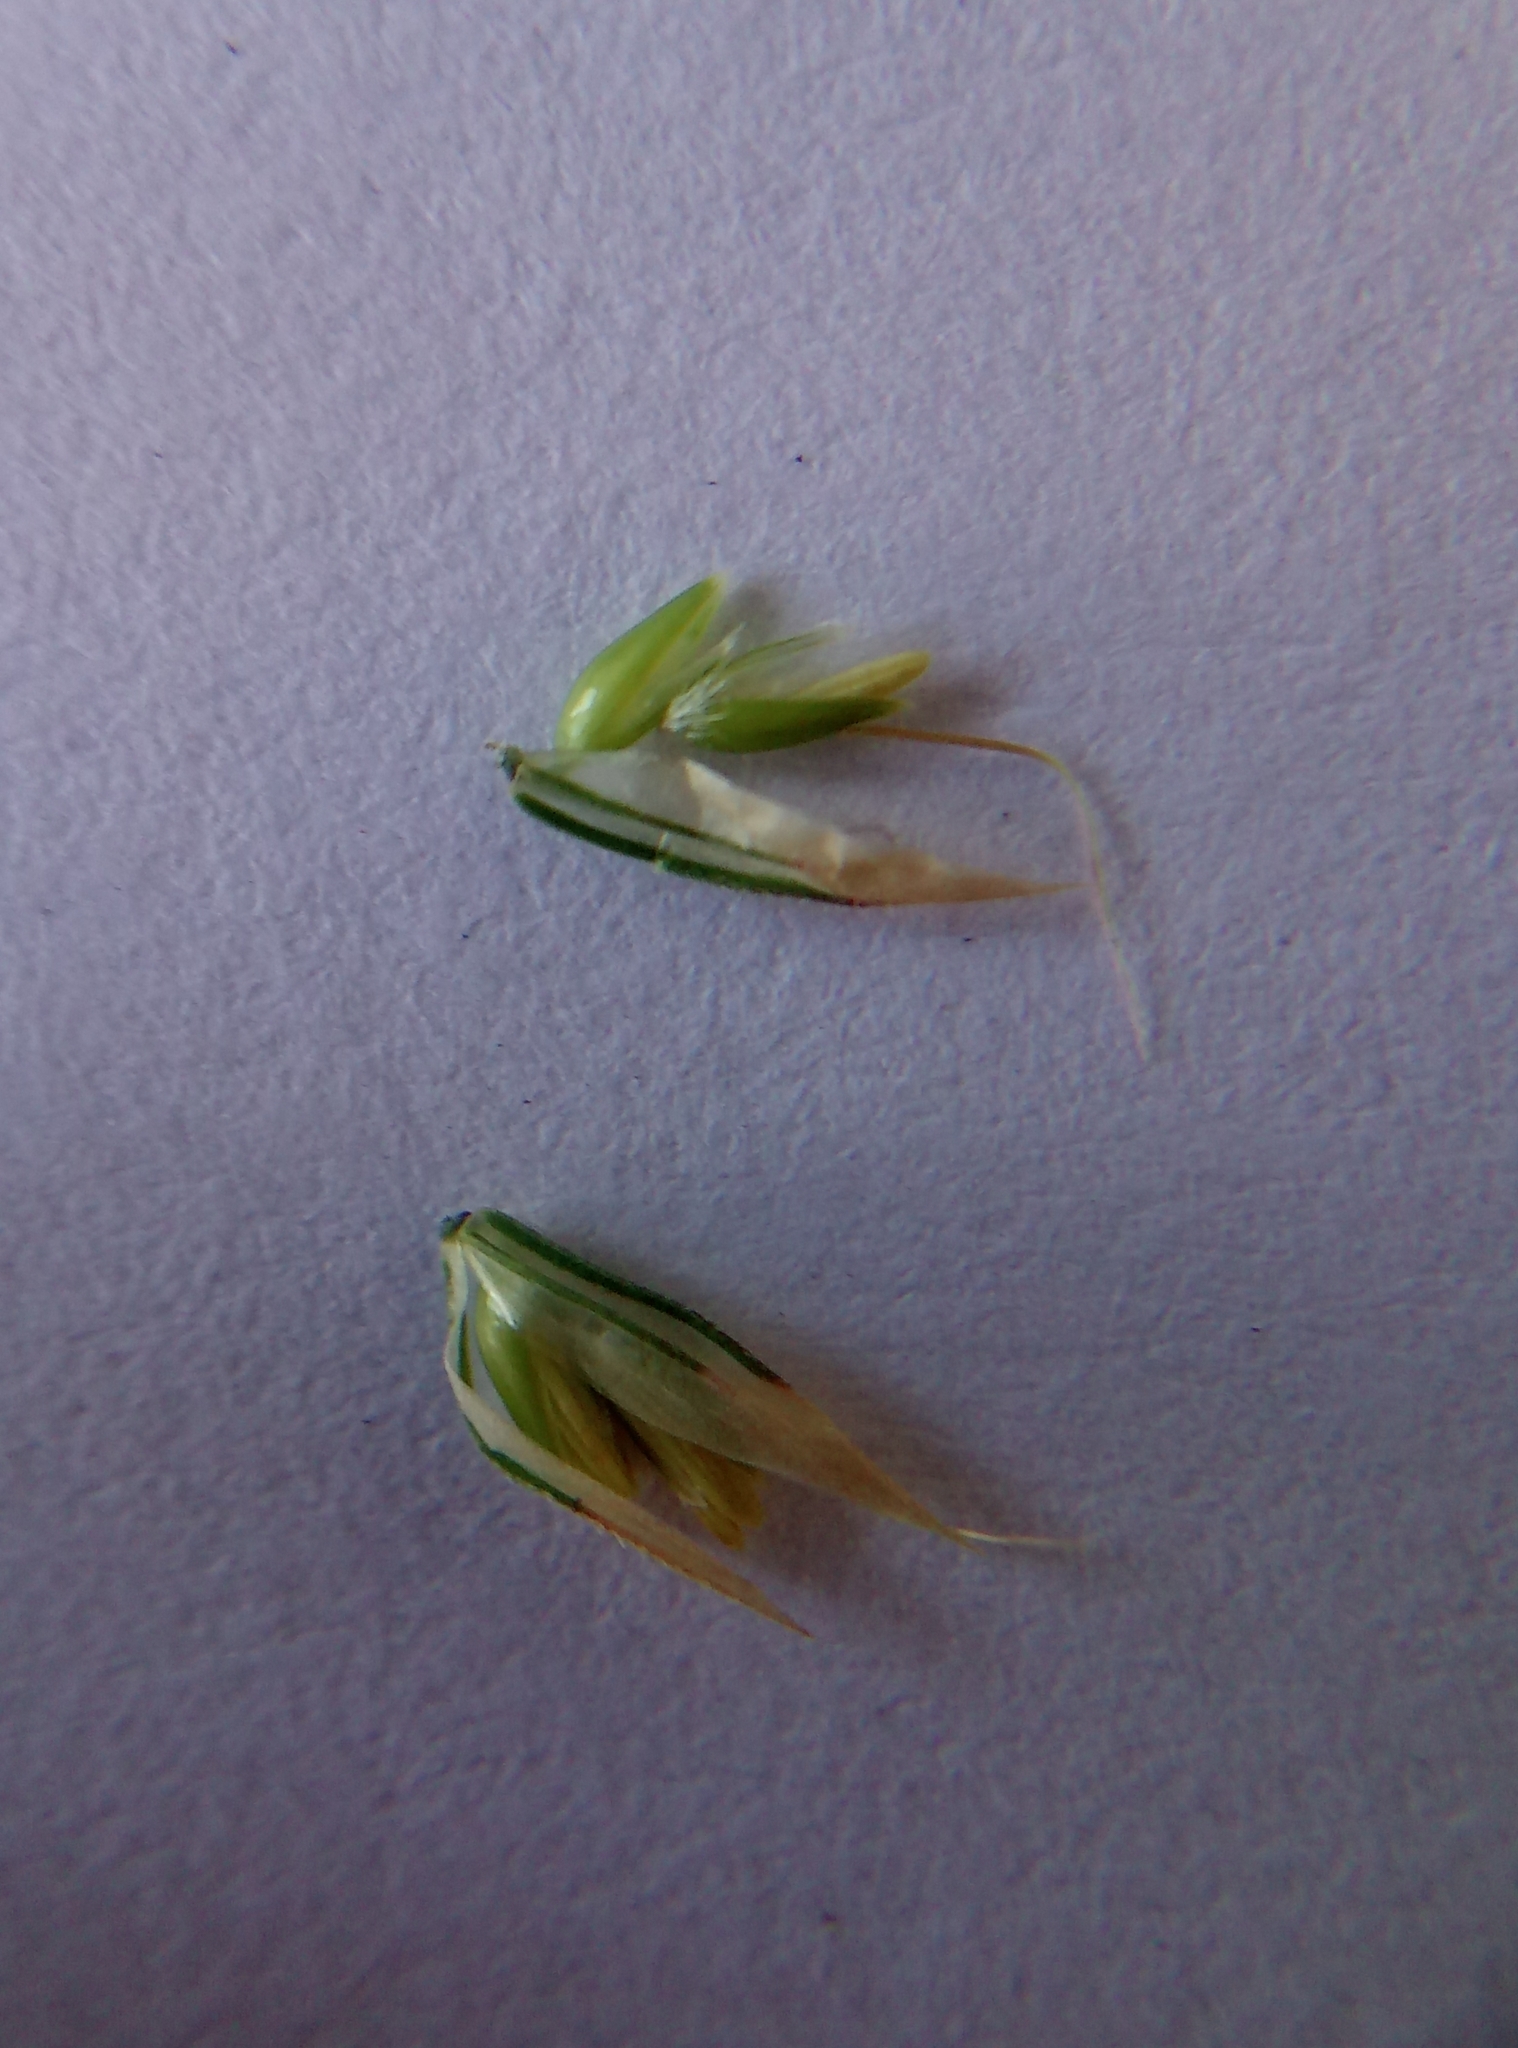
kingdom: Plantae
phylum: Tracheophyta
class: Liliopsida
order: Poales
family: Poaceae
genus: Holcus
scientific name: Holcus mollis
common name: Creeping velvetgrass
